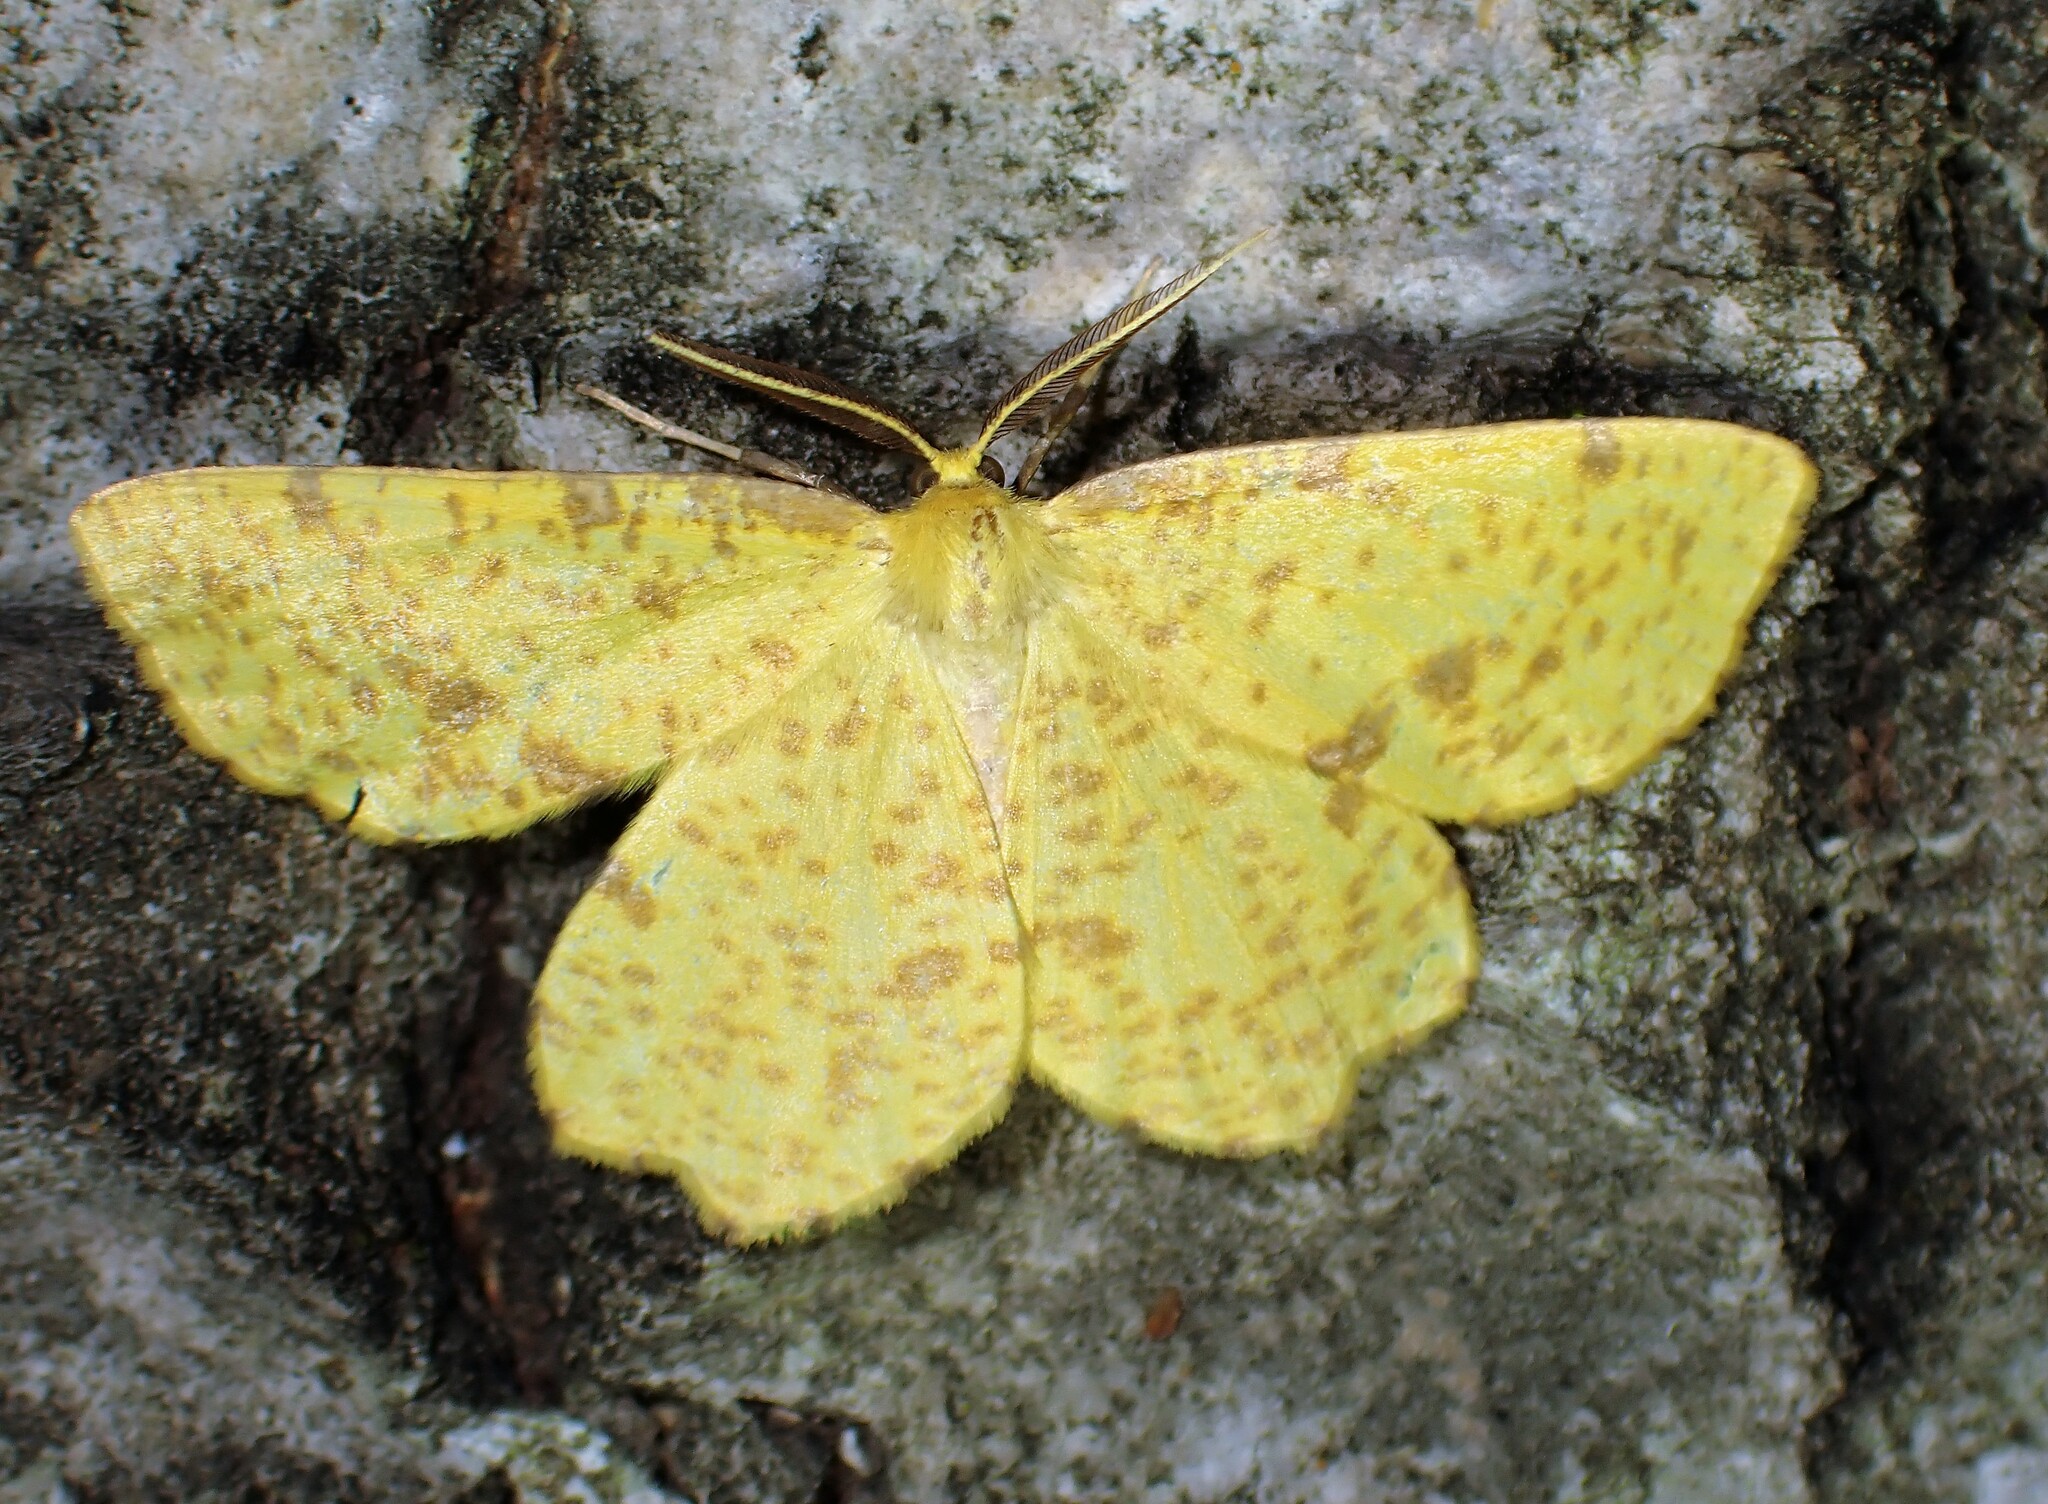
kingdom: Animalia
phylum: Arthropoda
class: Insecta
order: Lepidoptera
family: Geometridae
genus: Xanthotype
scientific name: Xanthotype
